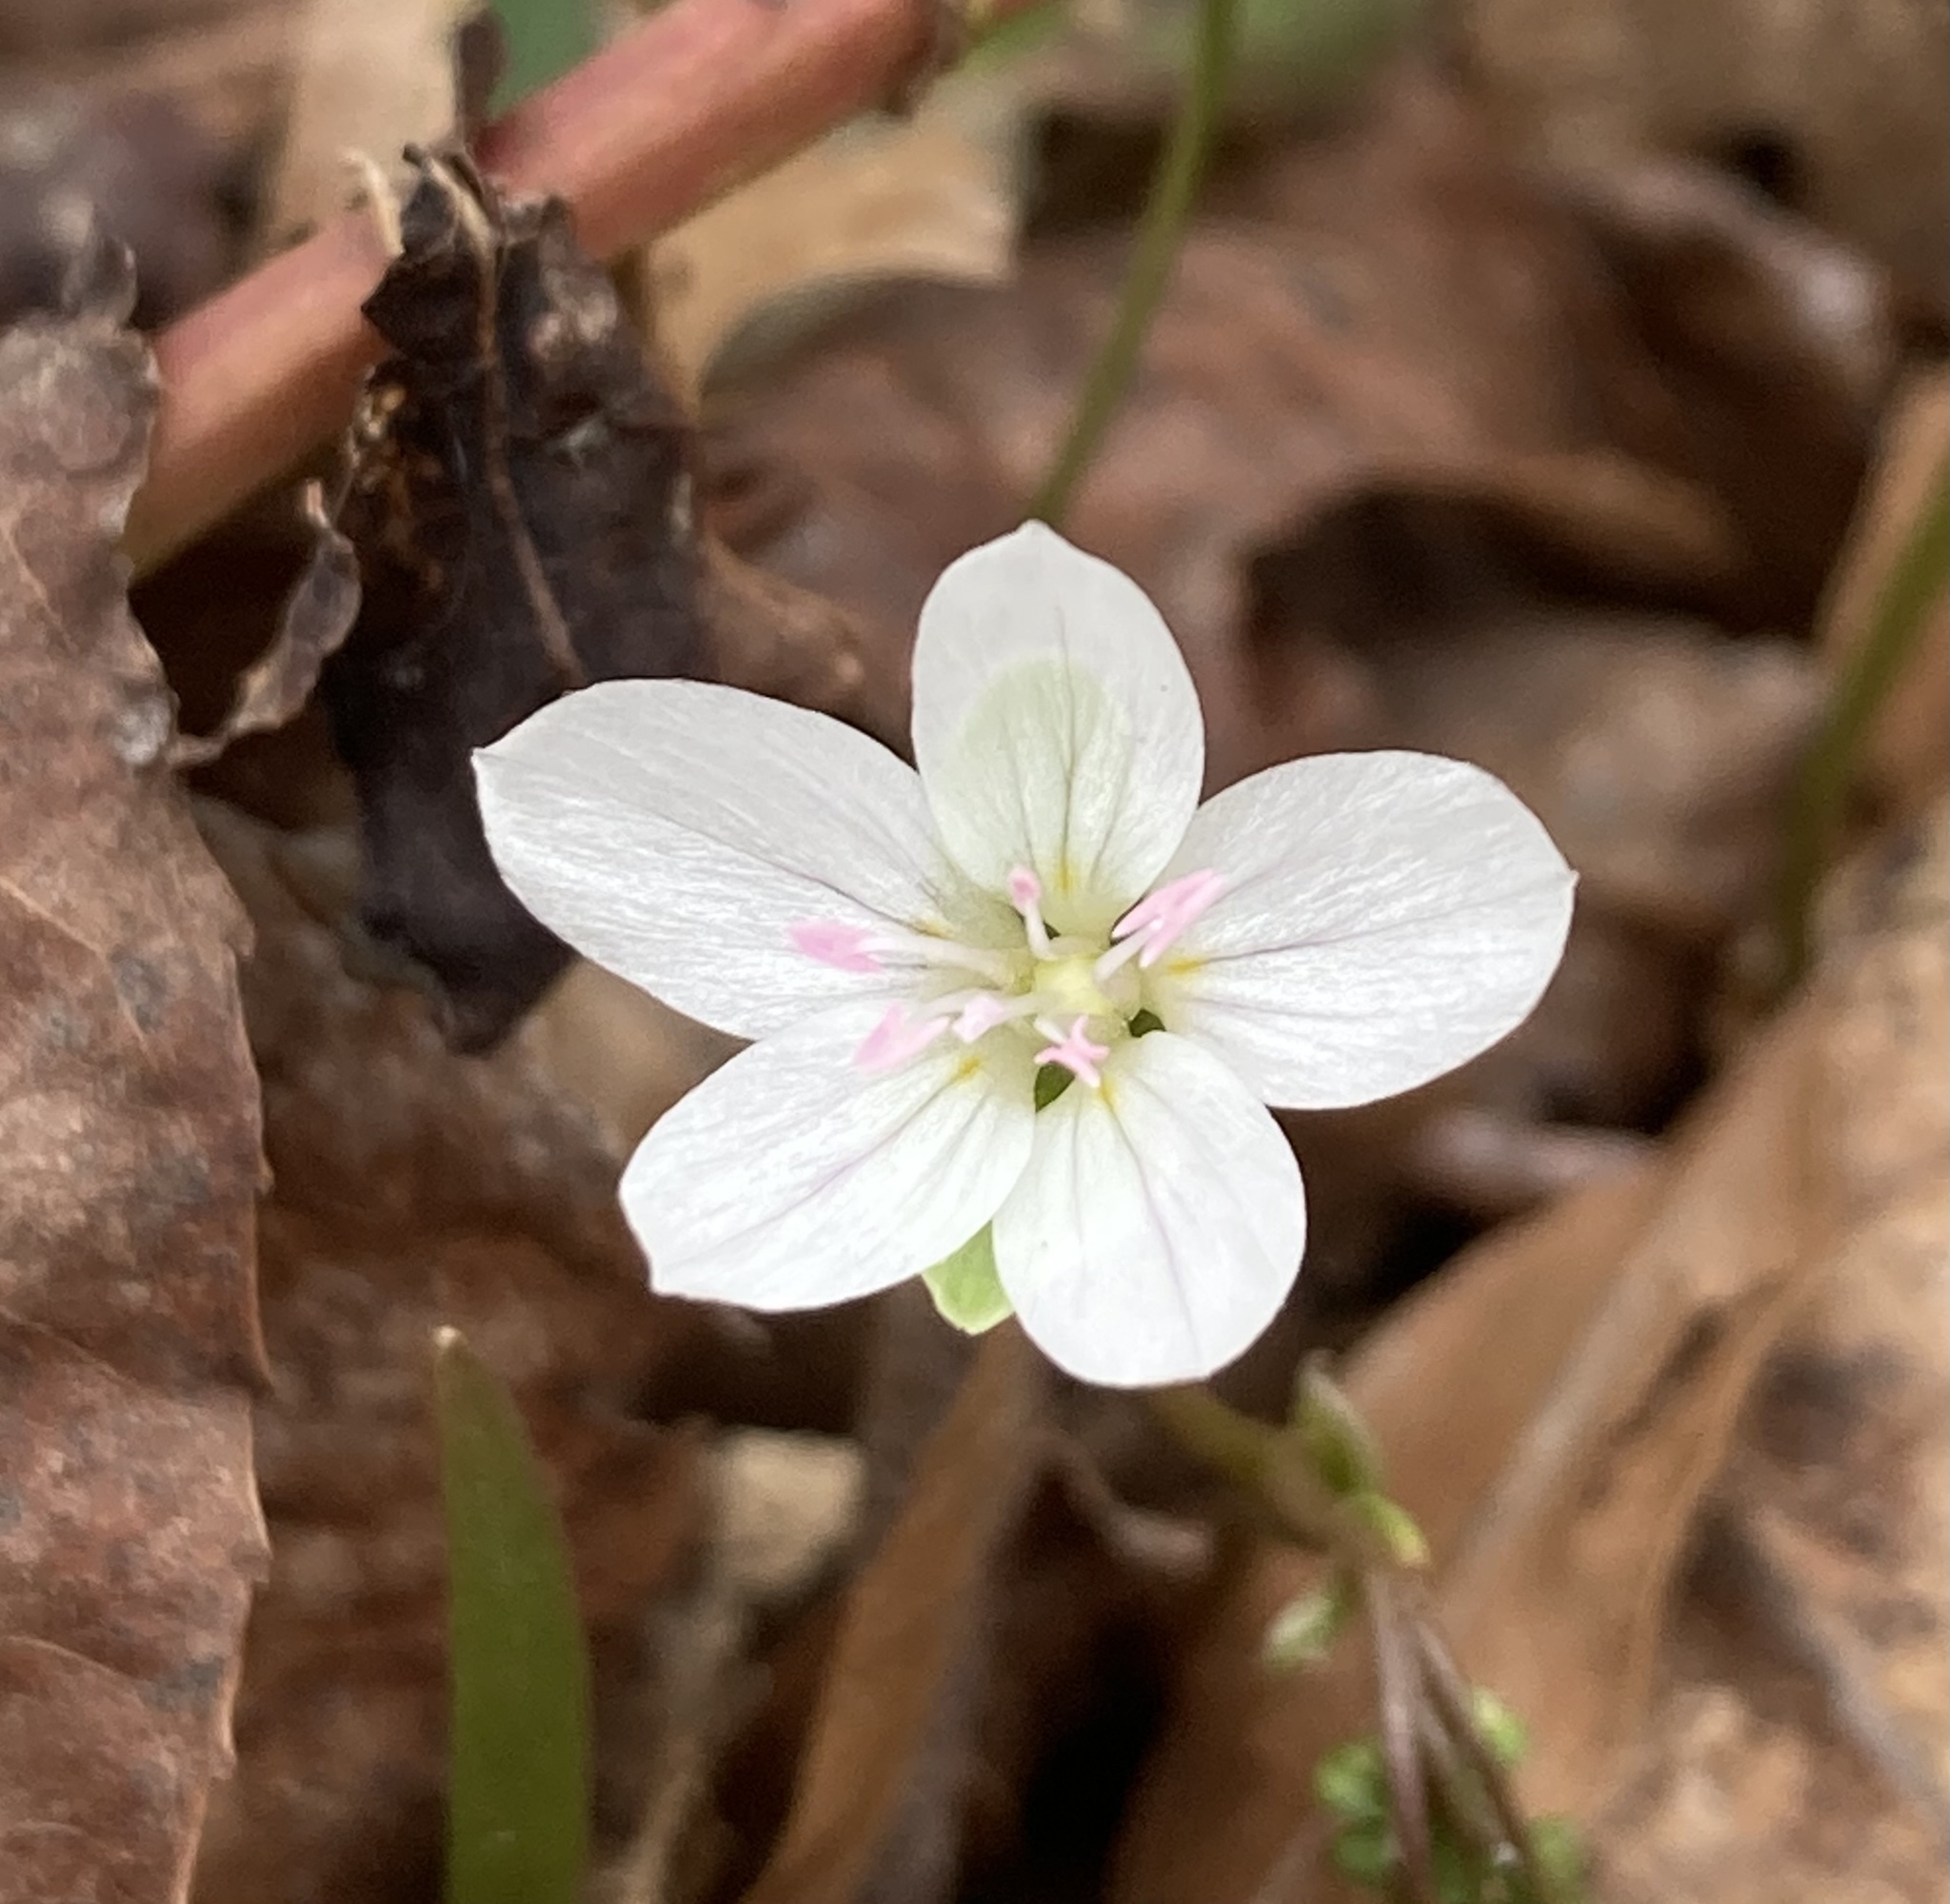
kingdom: Plantae
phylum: Tracheophyta
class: Magnoliopsida
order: Caryophyllales
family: Montiaceae
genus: Claytonia
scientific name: Claytonia virginica
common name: Virginia springbeauty
